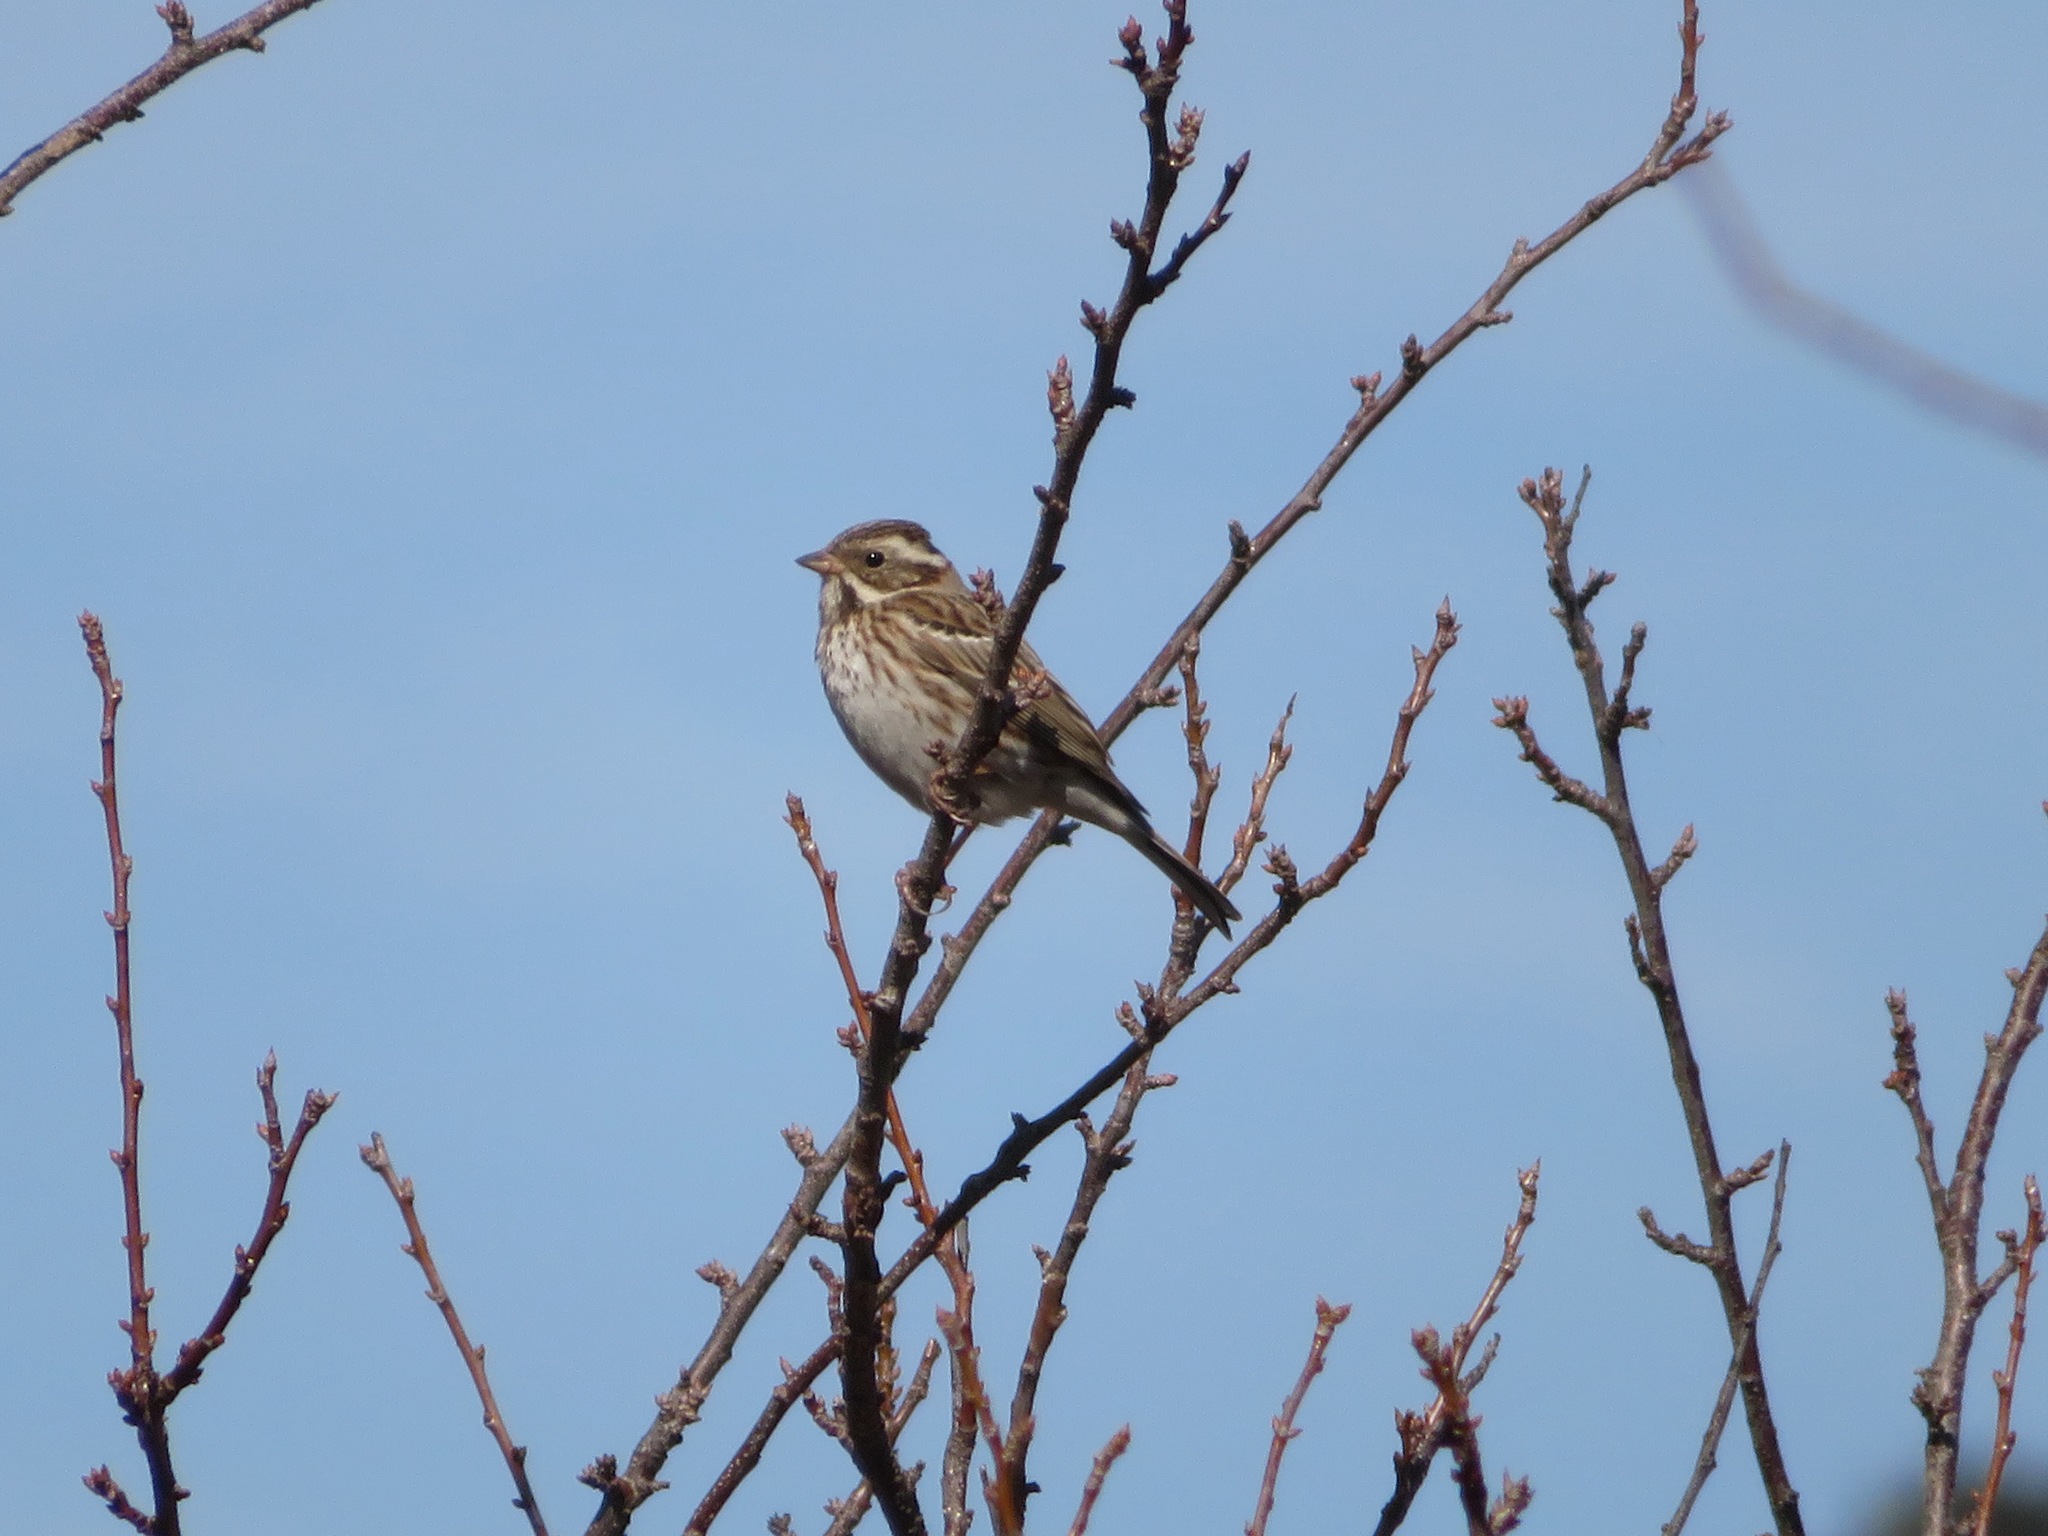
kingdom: Animalia
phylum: Chordata
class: Aves
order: Passeriformes
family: Emberizidae
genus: Emberiza
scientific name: Emberiza rustica
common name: Rustic bunting
